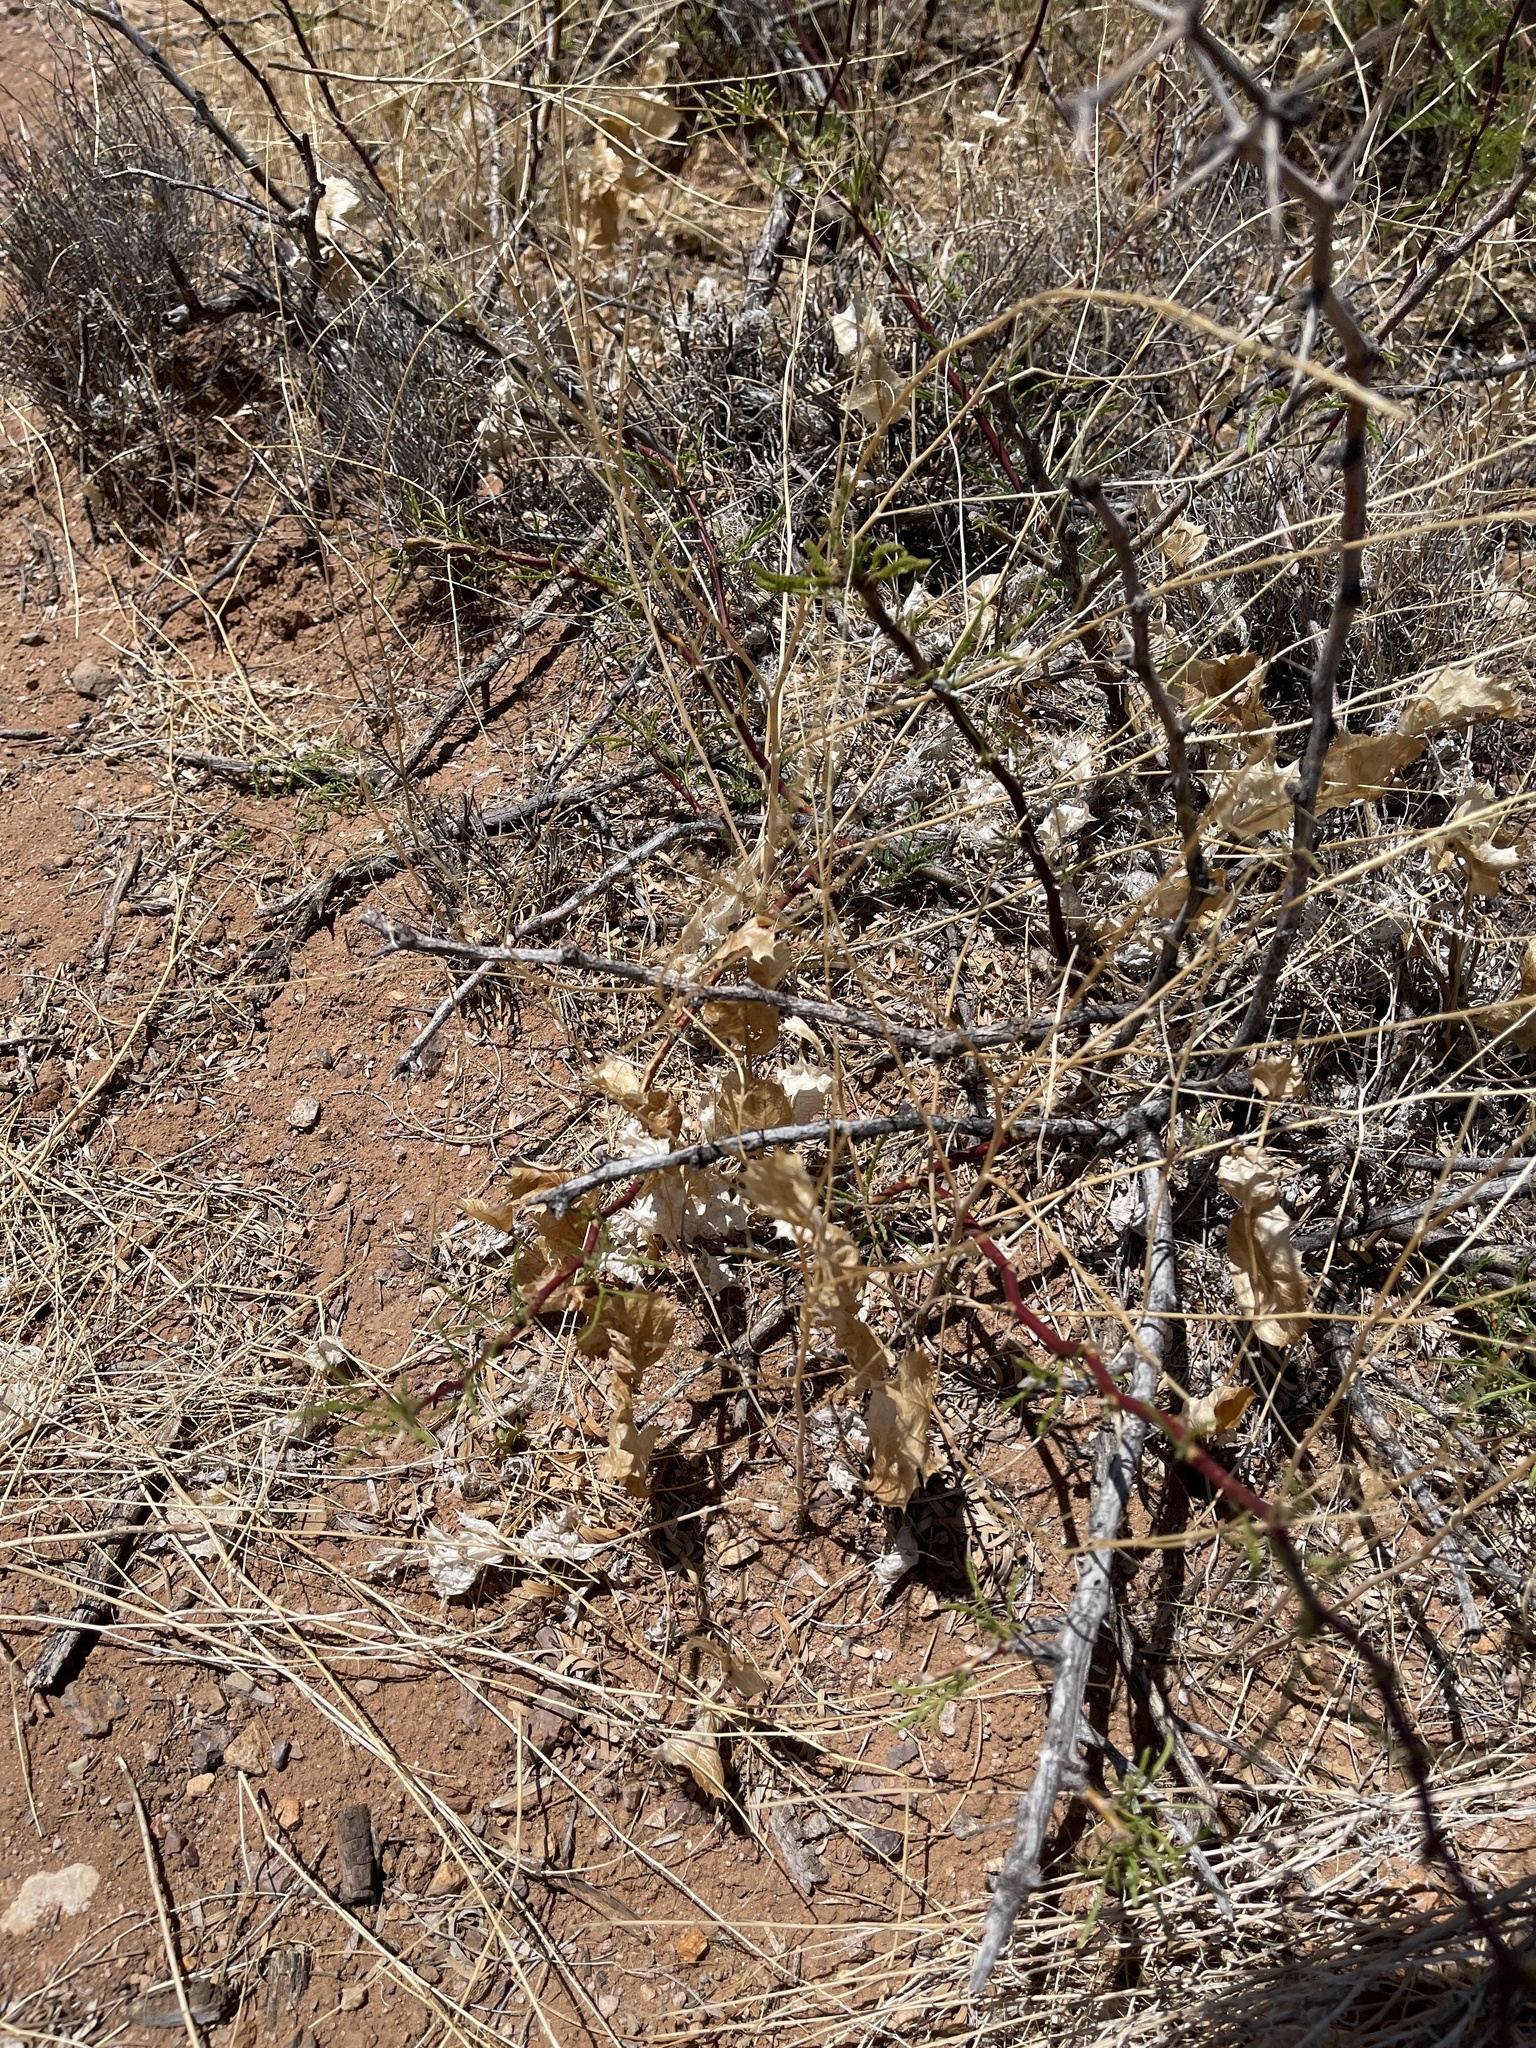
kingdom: Plantae
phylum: Tracheophyta
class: Magnoliopsida
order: Asterales
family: Asteraceae
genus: Acourtia
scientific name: Acourtia nana
